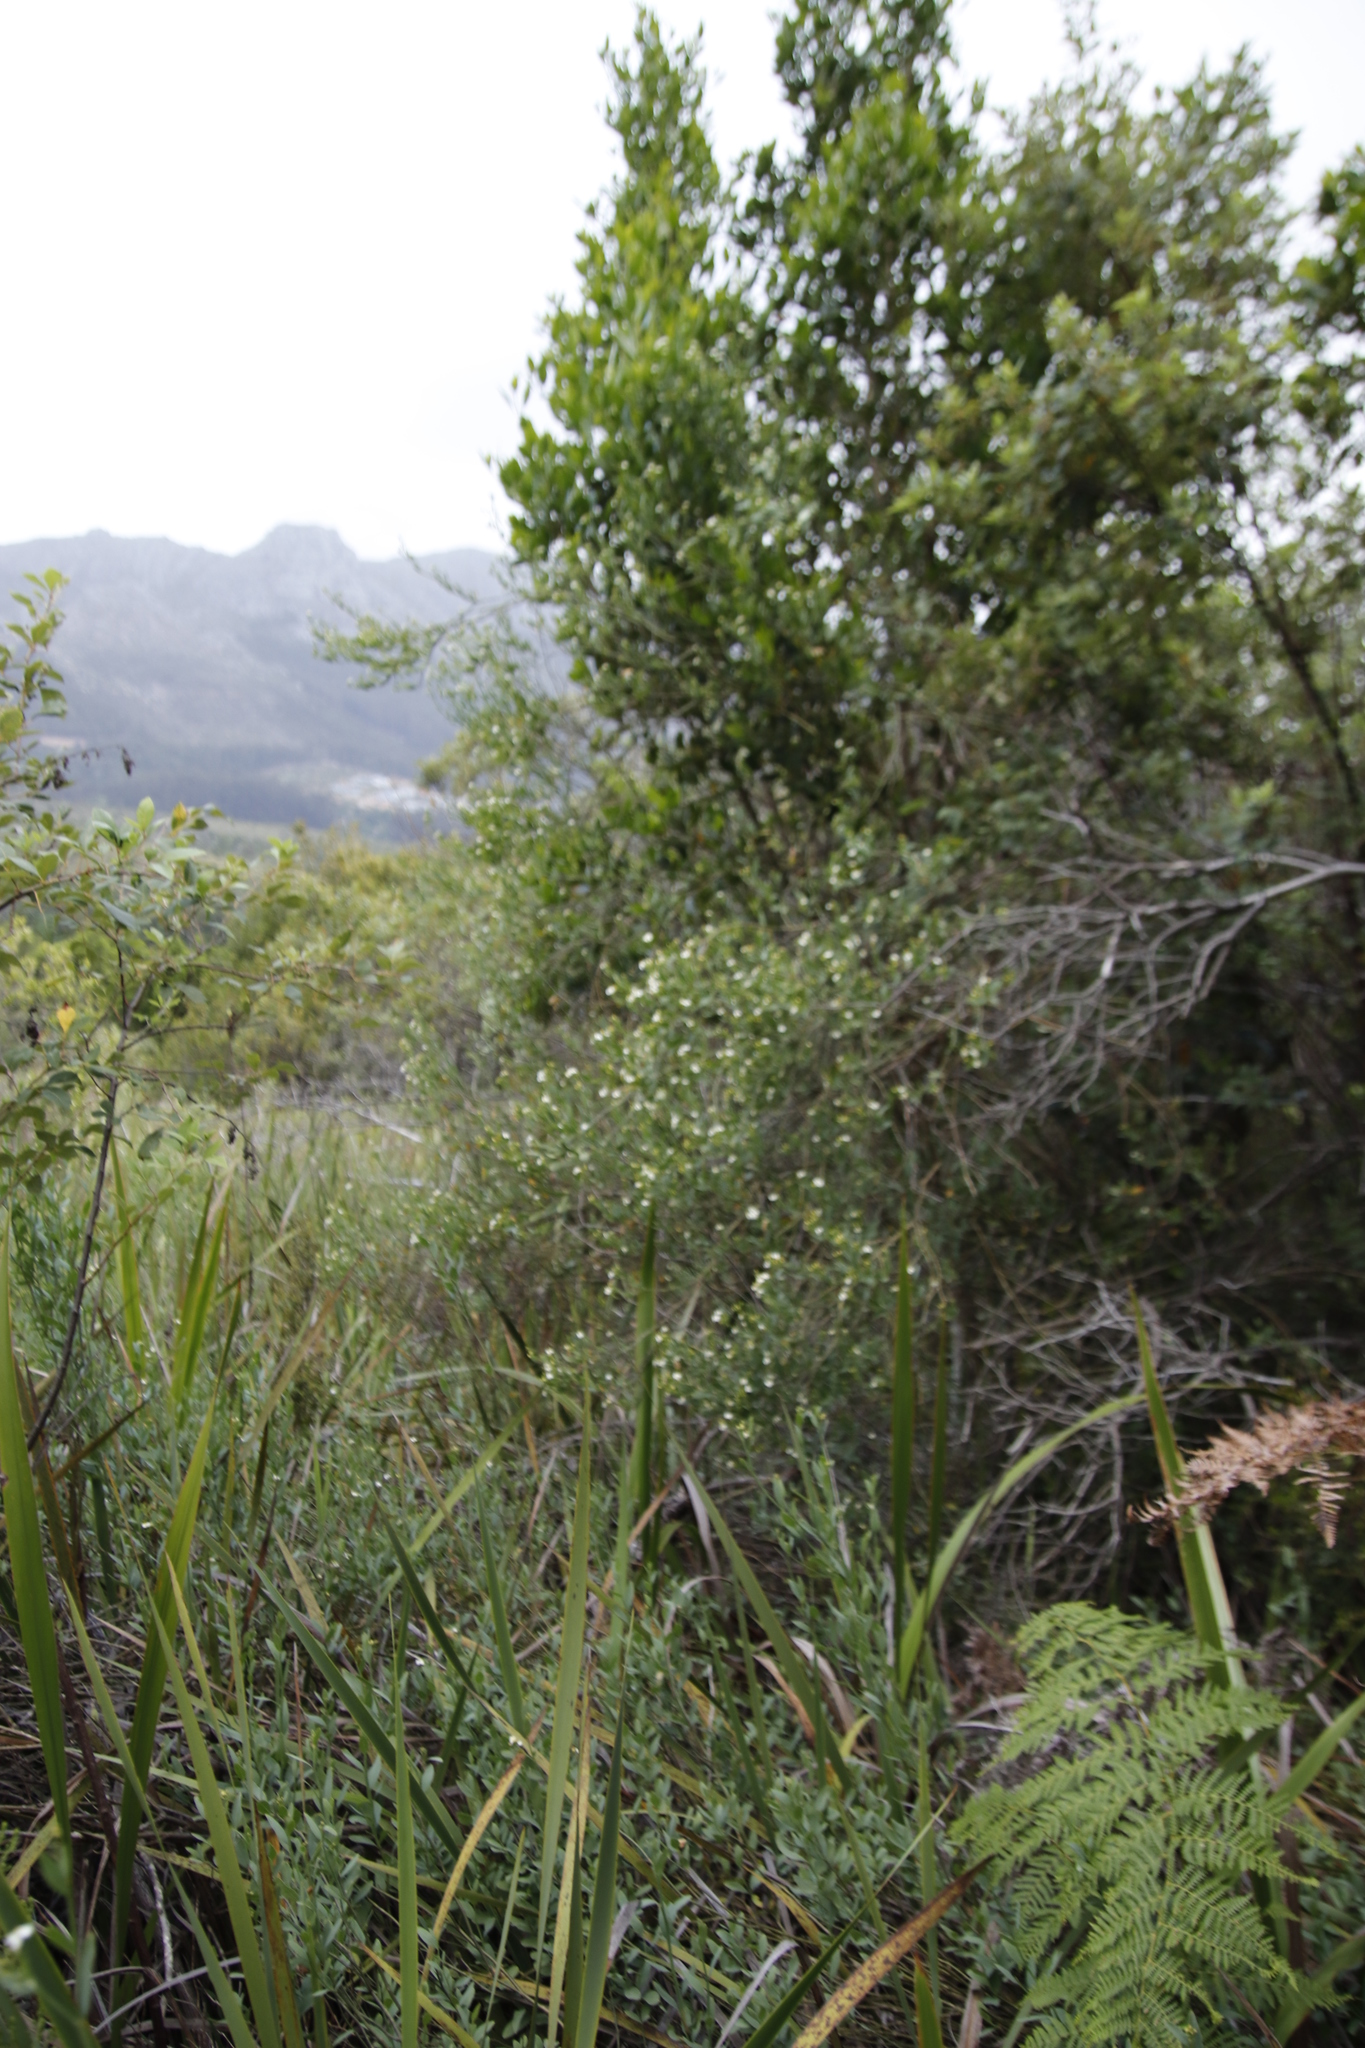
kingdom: Plantae
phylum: Tracheophyta
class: Magnoliopsida
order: Solanales
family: Montiniaceae
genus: Montinia
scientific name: Montinia caryophyllacea
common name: Wild clove-bush
